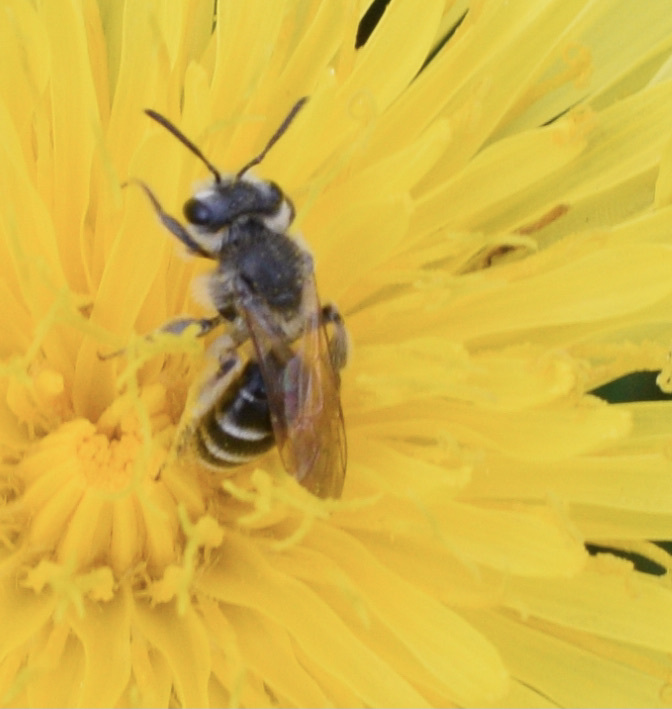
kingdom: Animalia
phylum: Arthropoda
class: Insecta
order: Hymenoptera
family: Andrenidae
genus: Andrena
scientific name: Andrena nasonii
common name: Nason's mining bee
